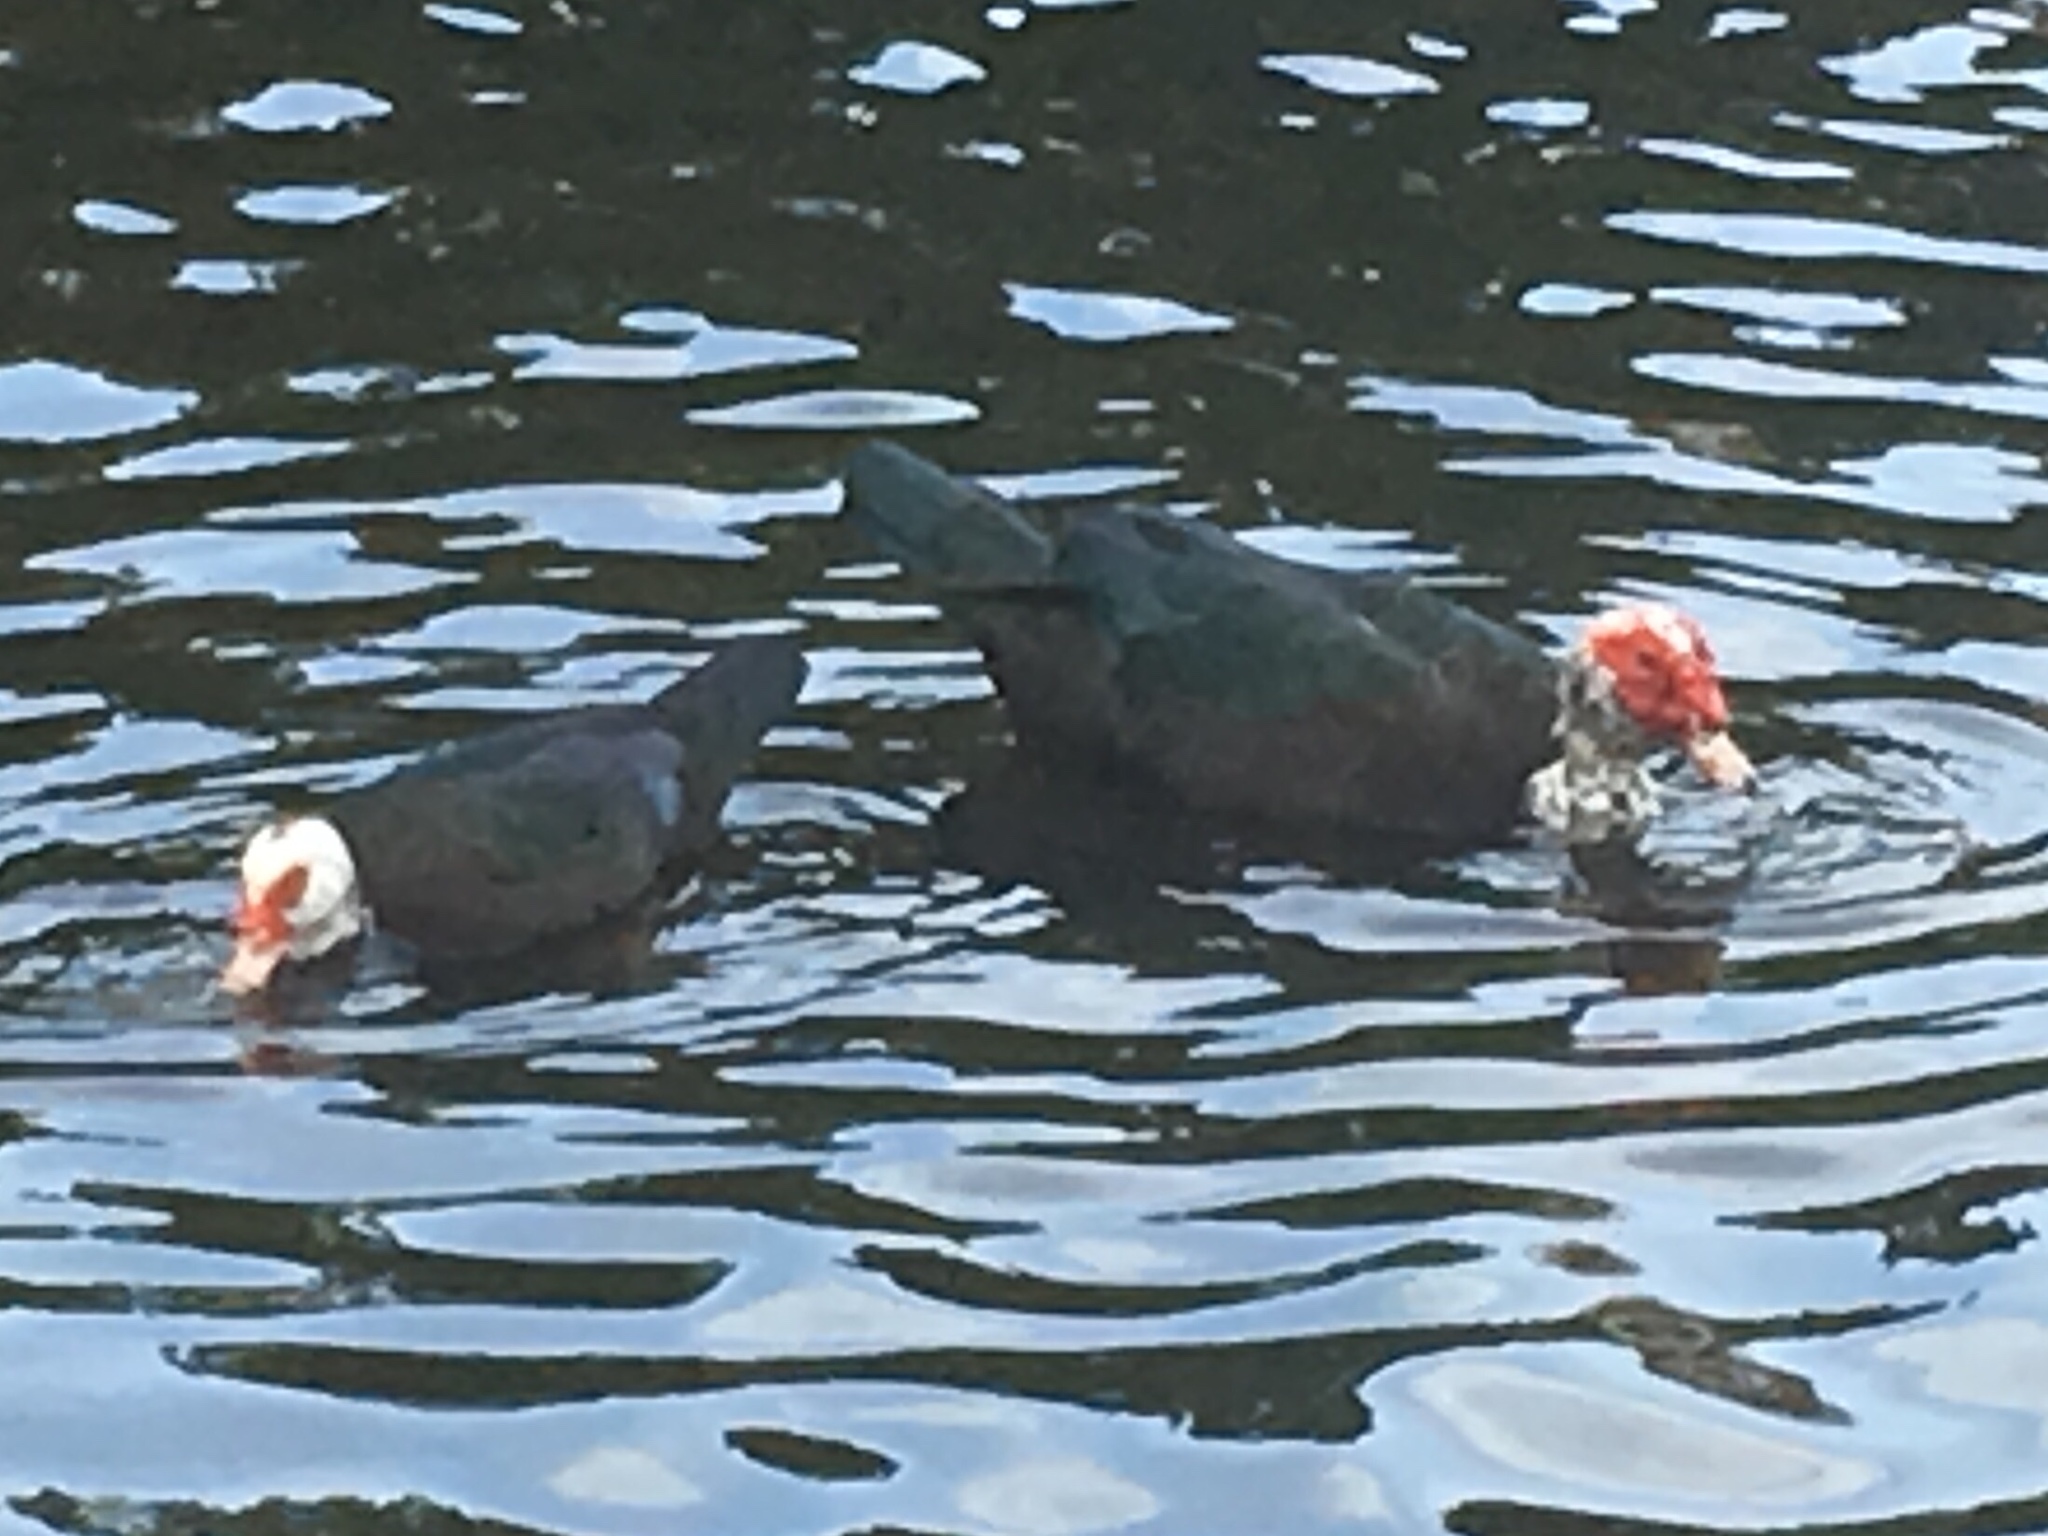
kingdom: Animalia
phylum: Chordata
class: Aves
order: Anseriformes
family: Anatidae
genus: Cairina
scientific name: Cairina moschata
